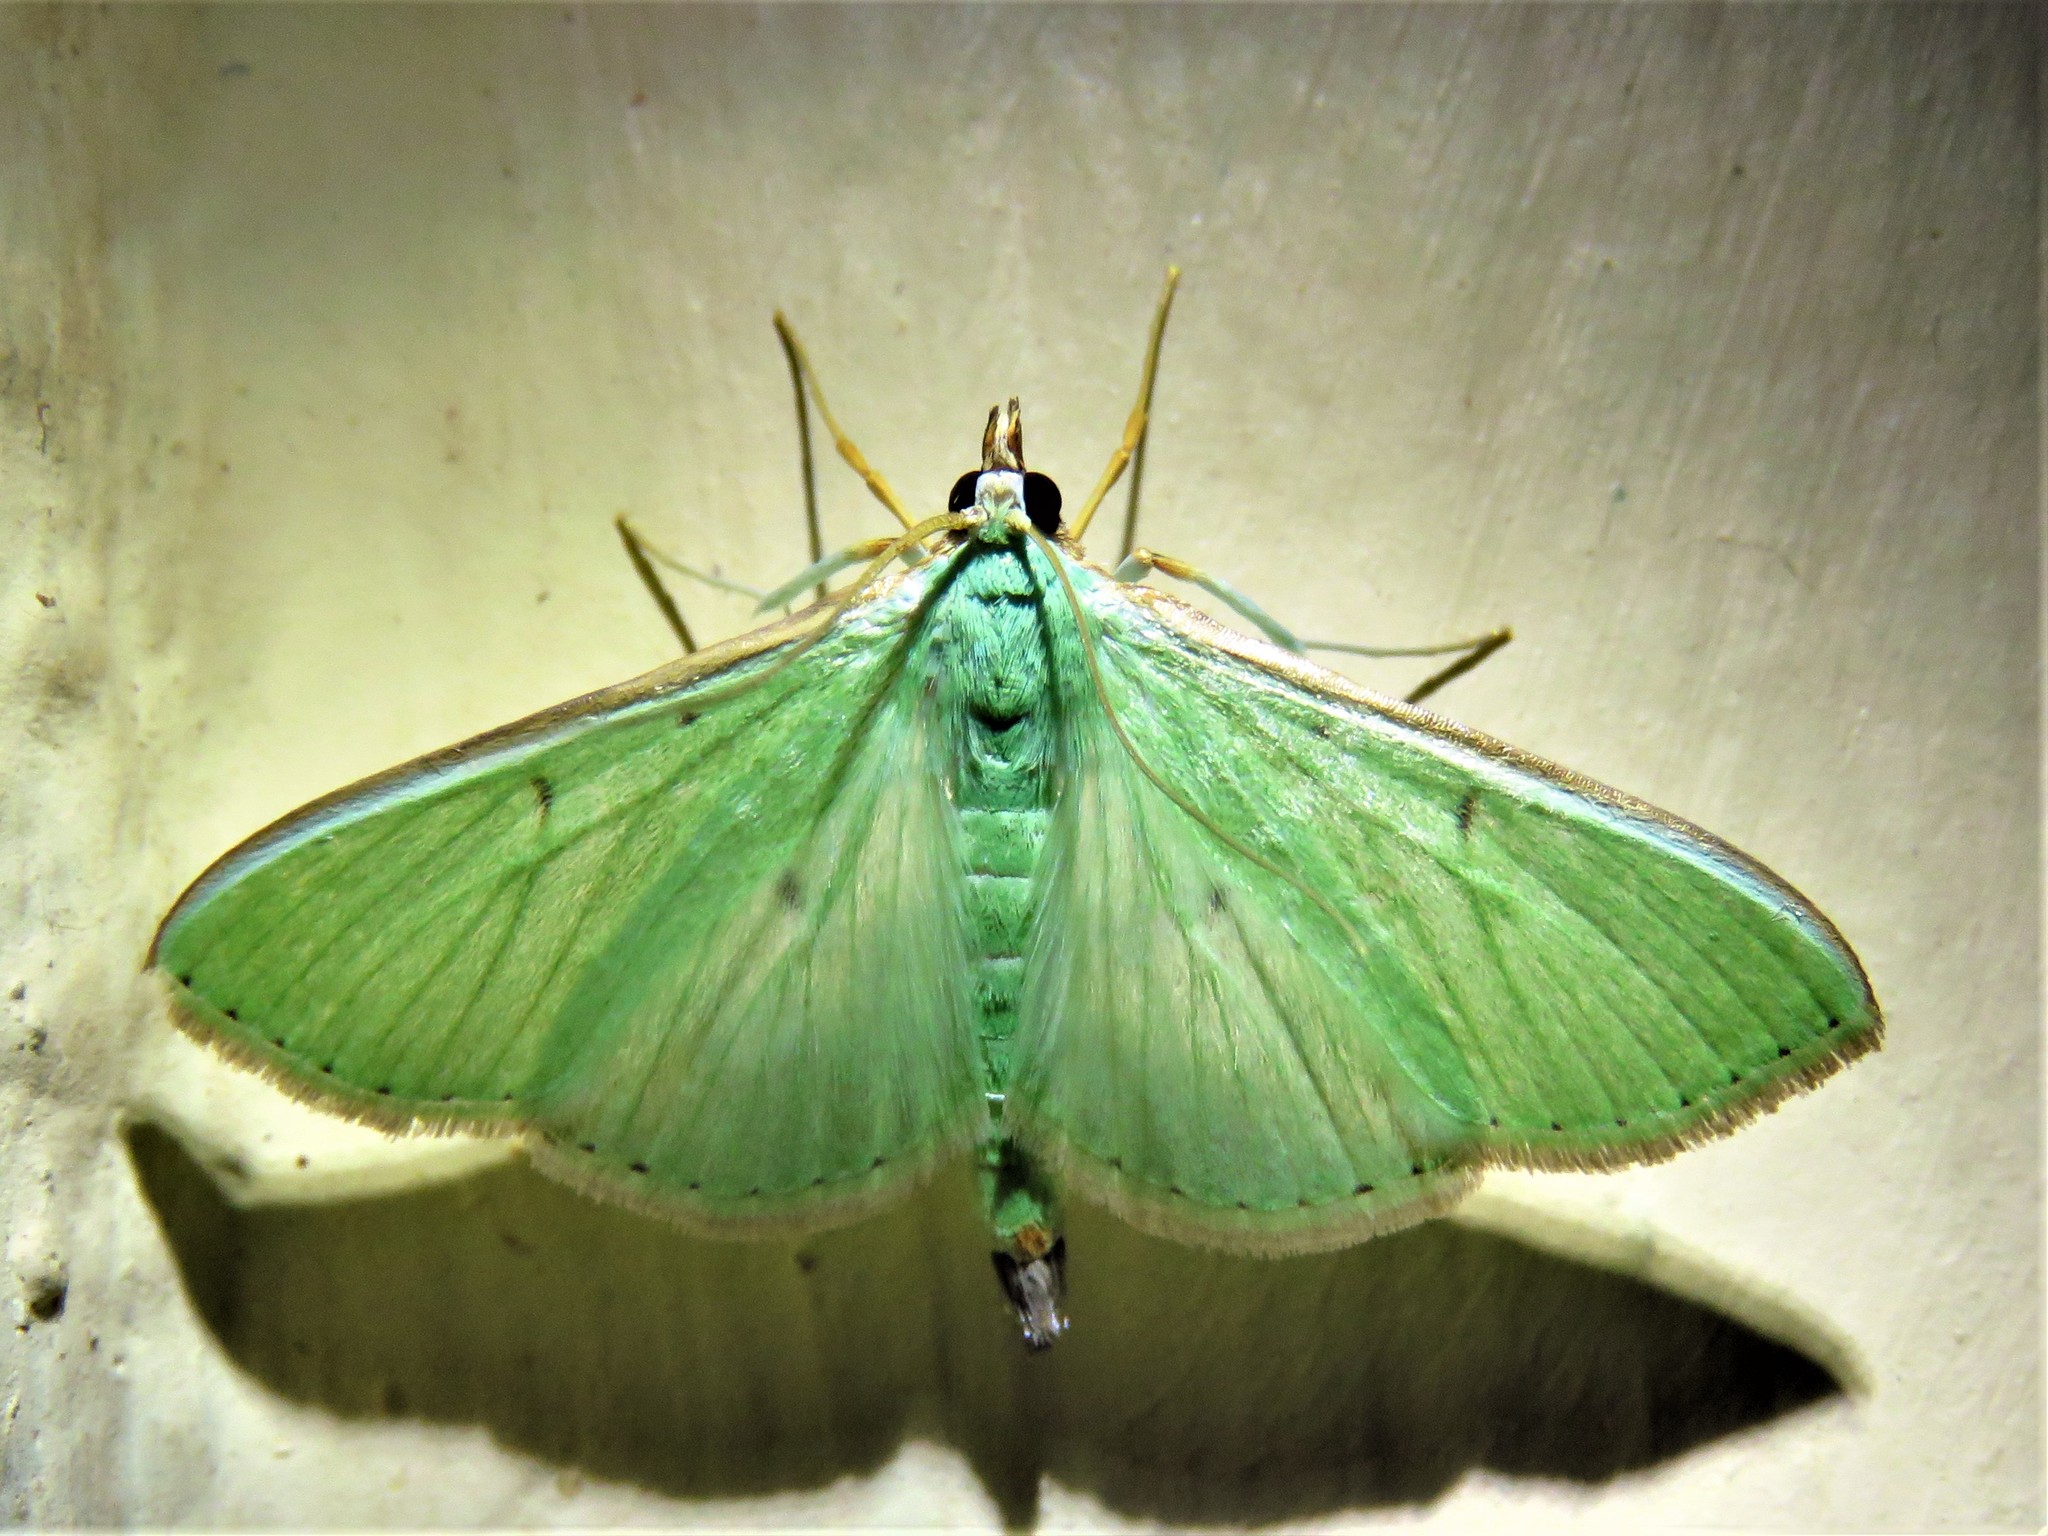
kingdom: Animalia
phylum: Arthropoda
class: Insecta
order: Lepidoptera
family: Crambidae
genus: Parotis
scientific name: Parotis baldersalis
